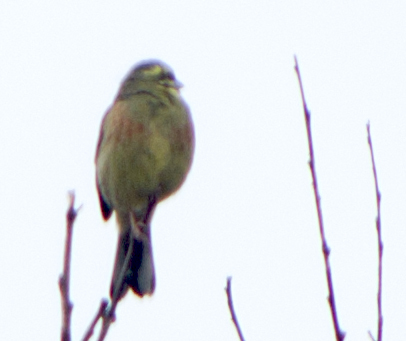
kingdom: Animalia
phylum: Chordata
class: Aves
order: Passeriformes
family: Emberizidae
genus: Emberiza
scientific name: Emberiza cirlus
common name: Cirl bunting
